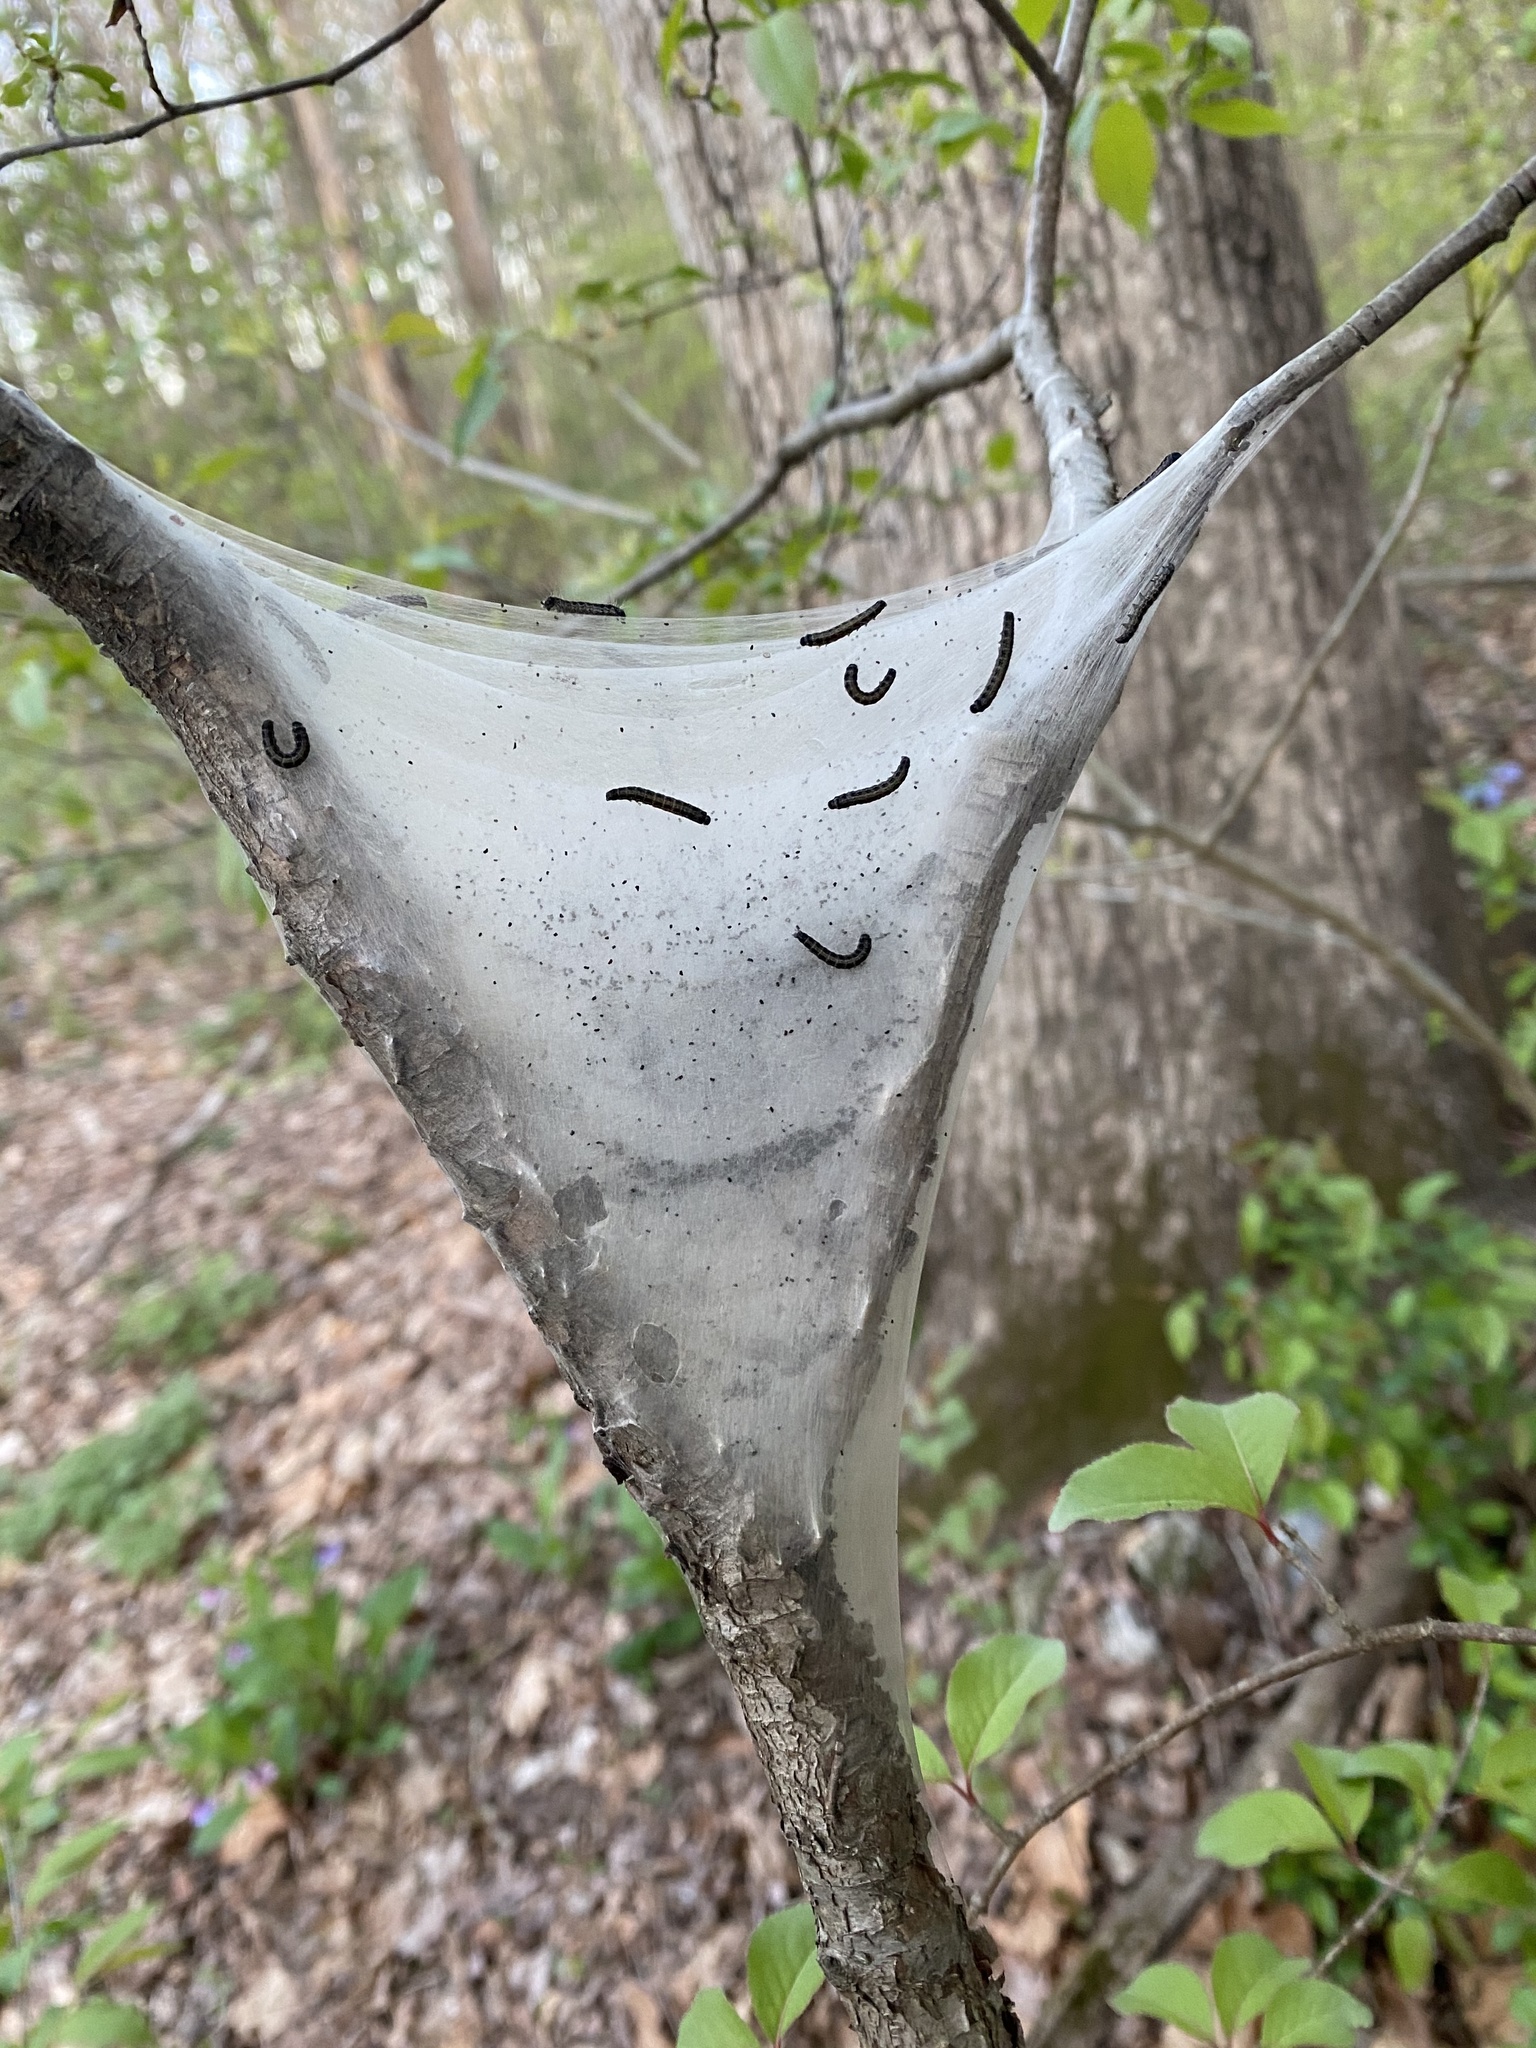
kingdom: Animalia
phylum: Arthropoda
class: Insecta
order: Lepidoptera
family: Lasiocampidae
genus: Malacosoma
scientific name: Malacosoma americana
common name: Eastern tent caterpillar moth
